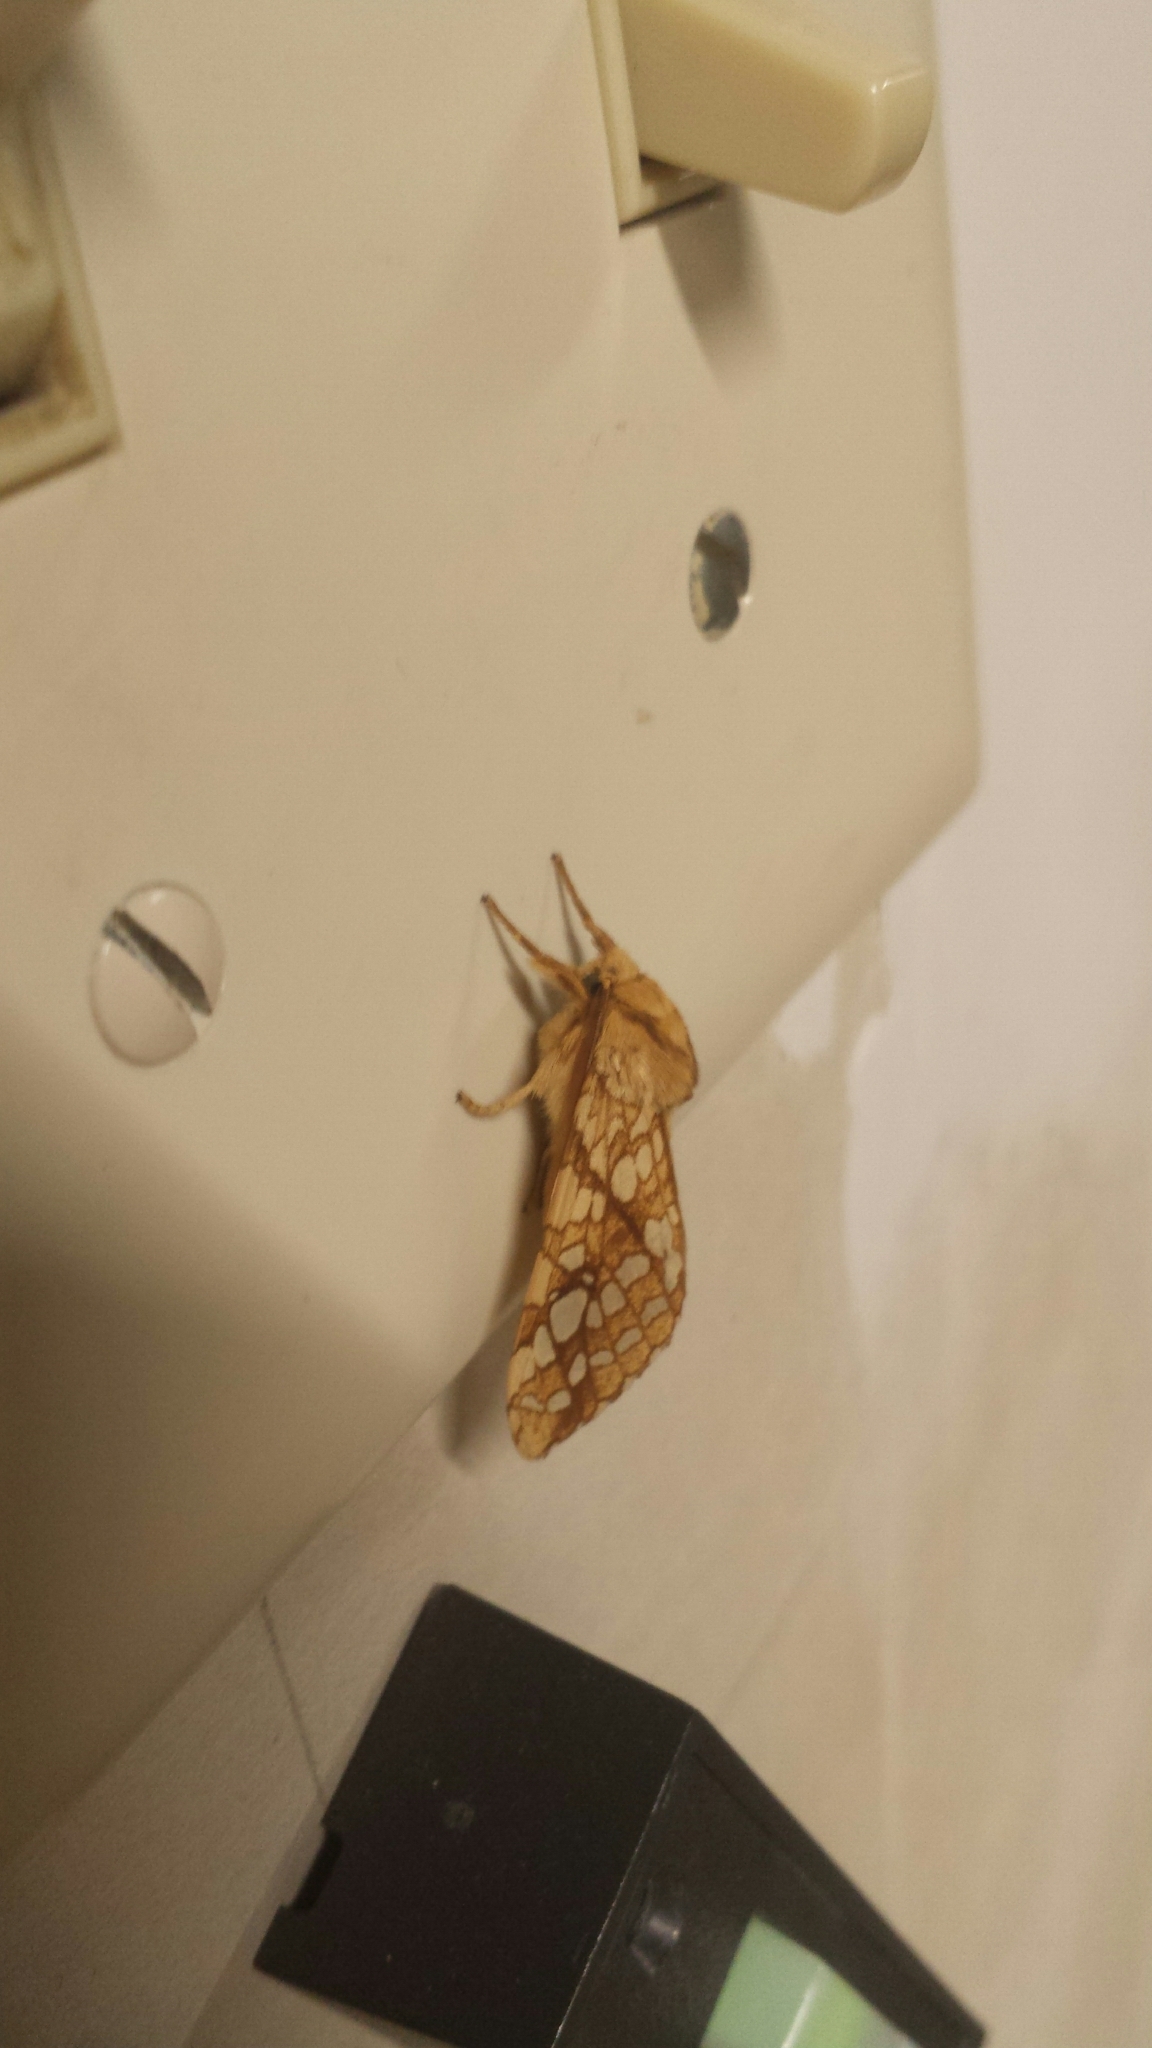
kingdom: Animalia
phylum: Arthropoda
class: Insecta
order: Lepidoptera
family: Erebidae
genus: Lophocampa
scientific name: Lophocampa caryae
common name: Hickory tussock moth
